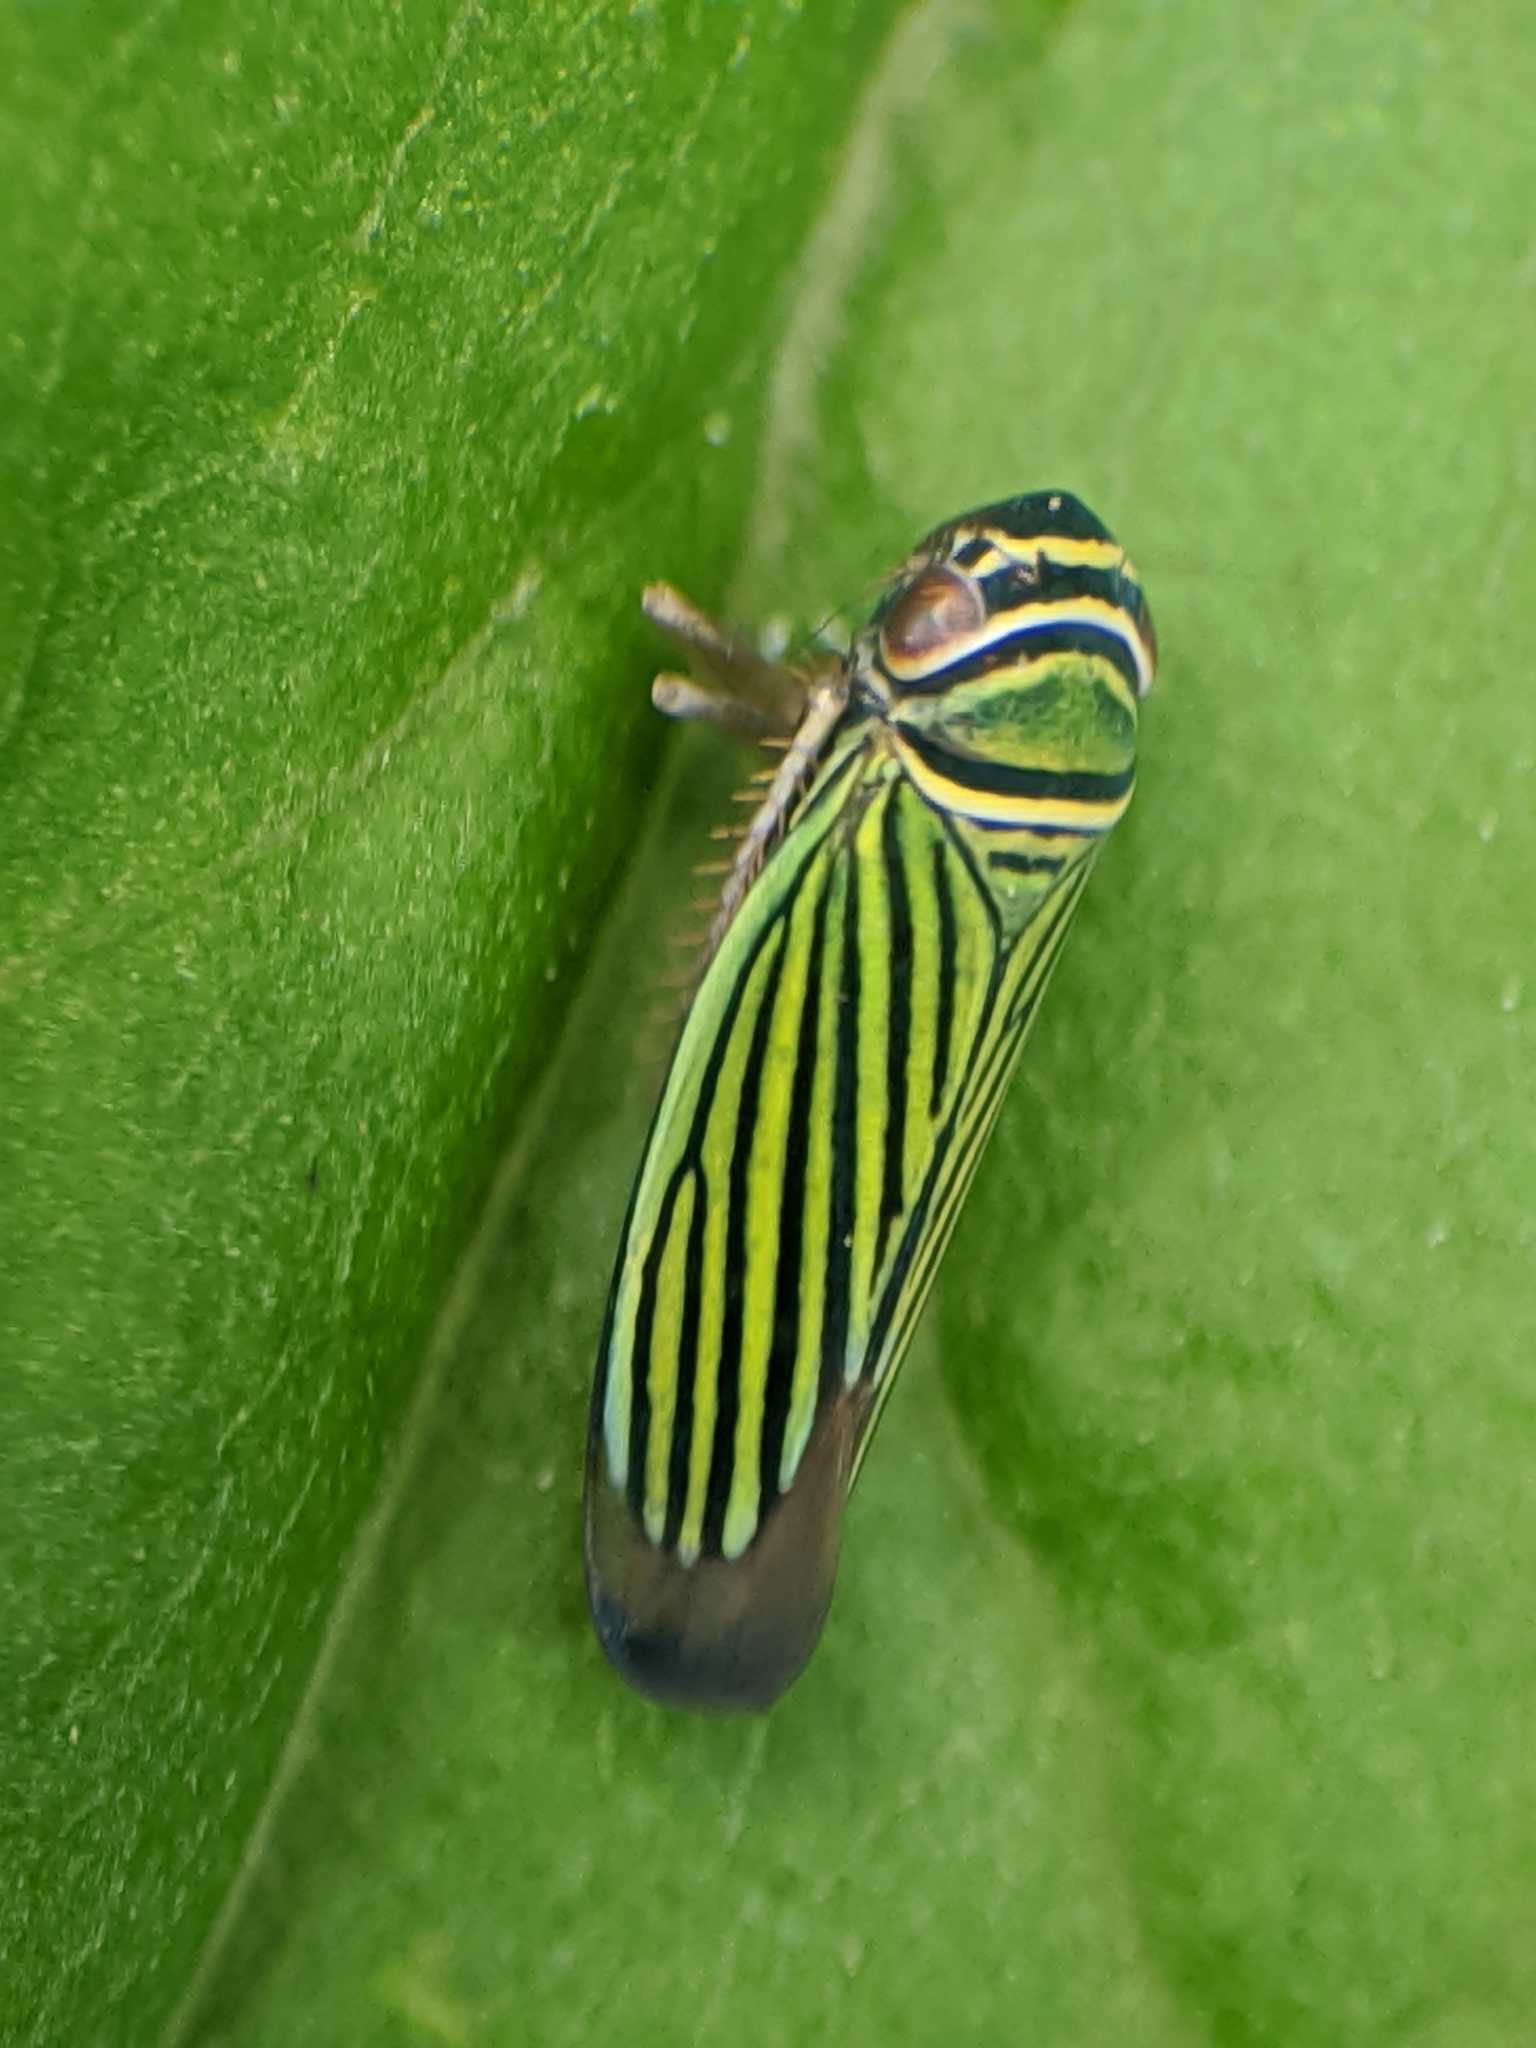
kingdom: Animalia
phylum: Arthropoda
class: Insecta
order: Hemiptera
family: Cicadellidae
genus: Tylozygus
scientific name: Tylozygus bifidus
